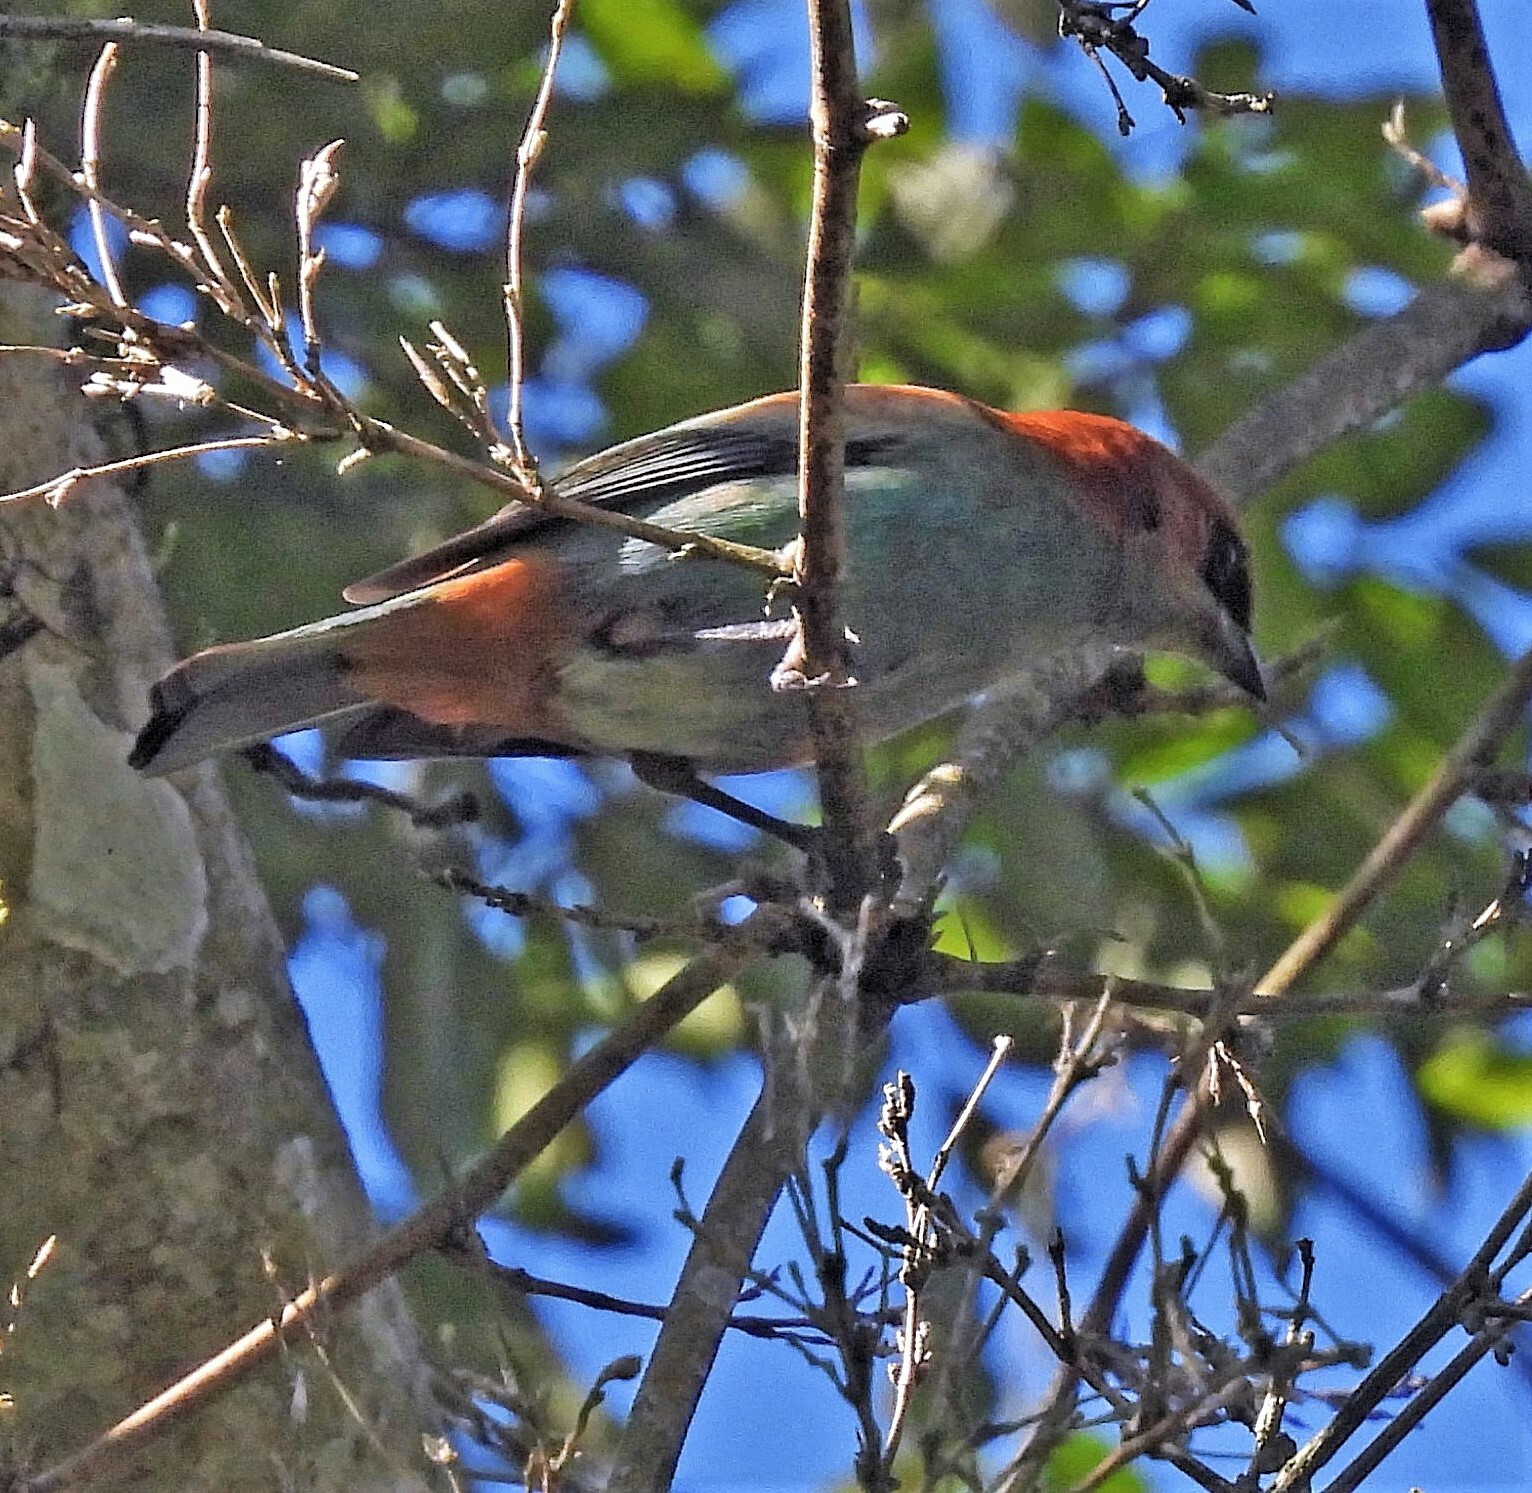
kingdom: Animalia
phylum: Chordata
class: Aves
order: Passeriformes
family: Thraupidae
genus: Stilpnia
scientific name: Stilpnia preciosa
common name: Chestnut-backed tanager
